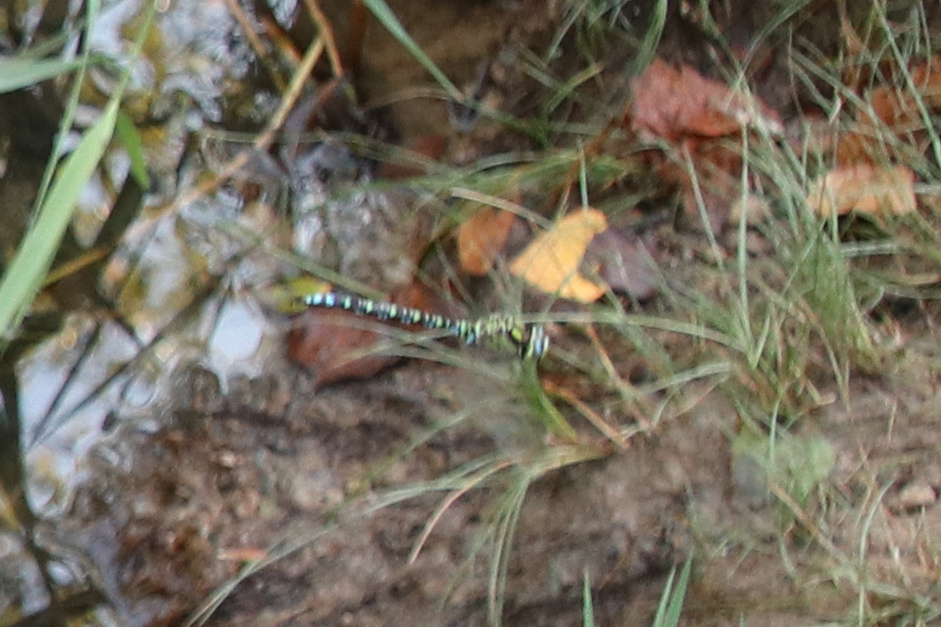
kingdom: Animalia
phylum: Arthropoda
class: Insecta
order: Odonata
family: Aeshnidae
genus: Aeshna
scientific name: Aeshna cyanea
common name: Southern hawker
